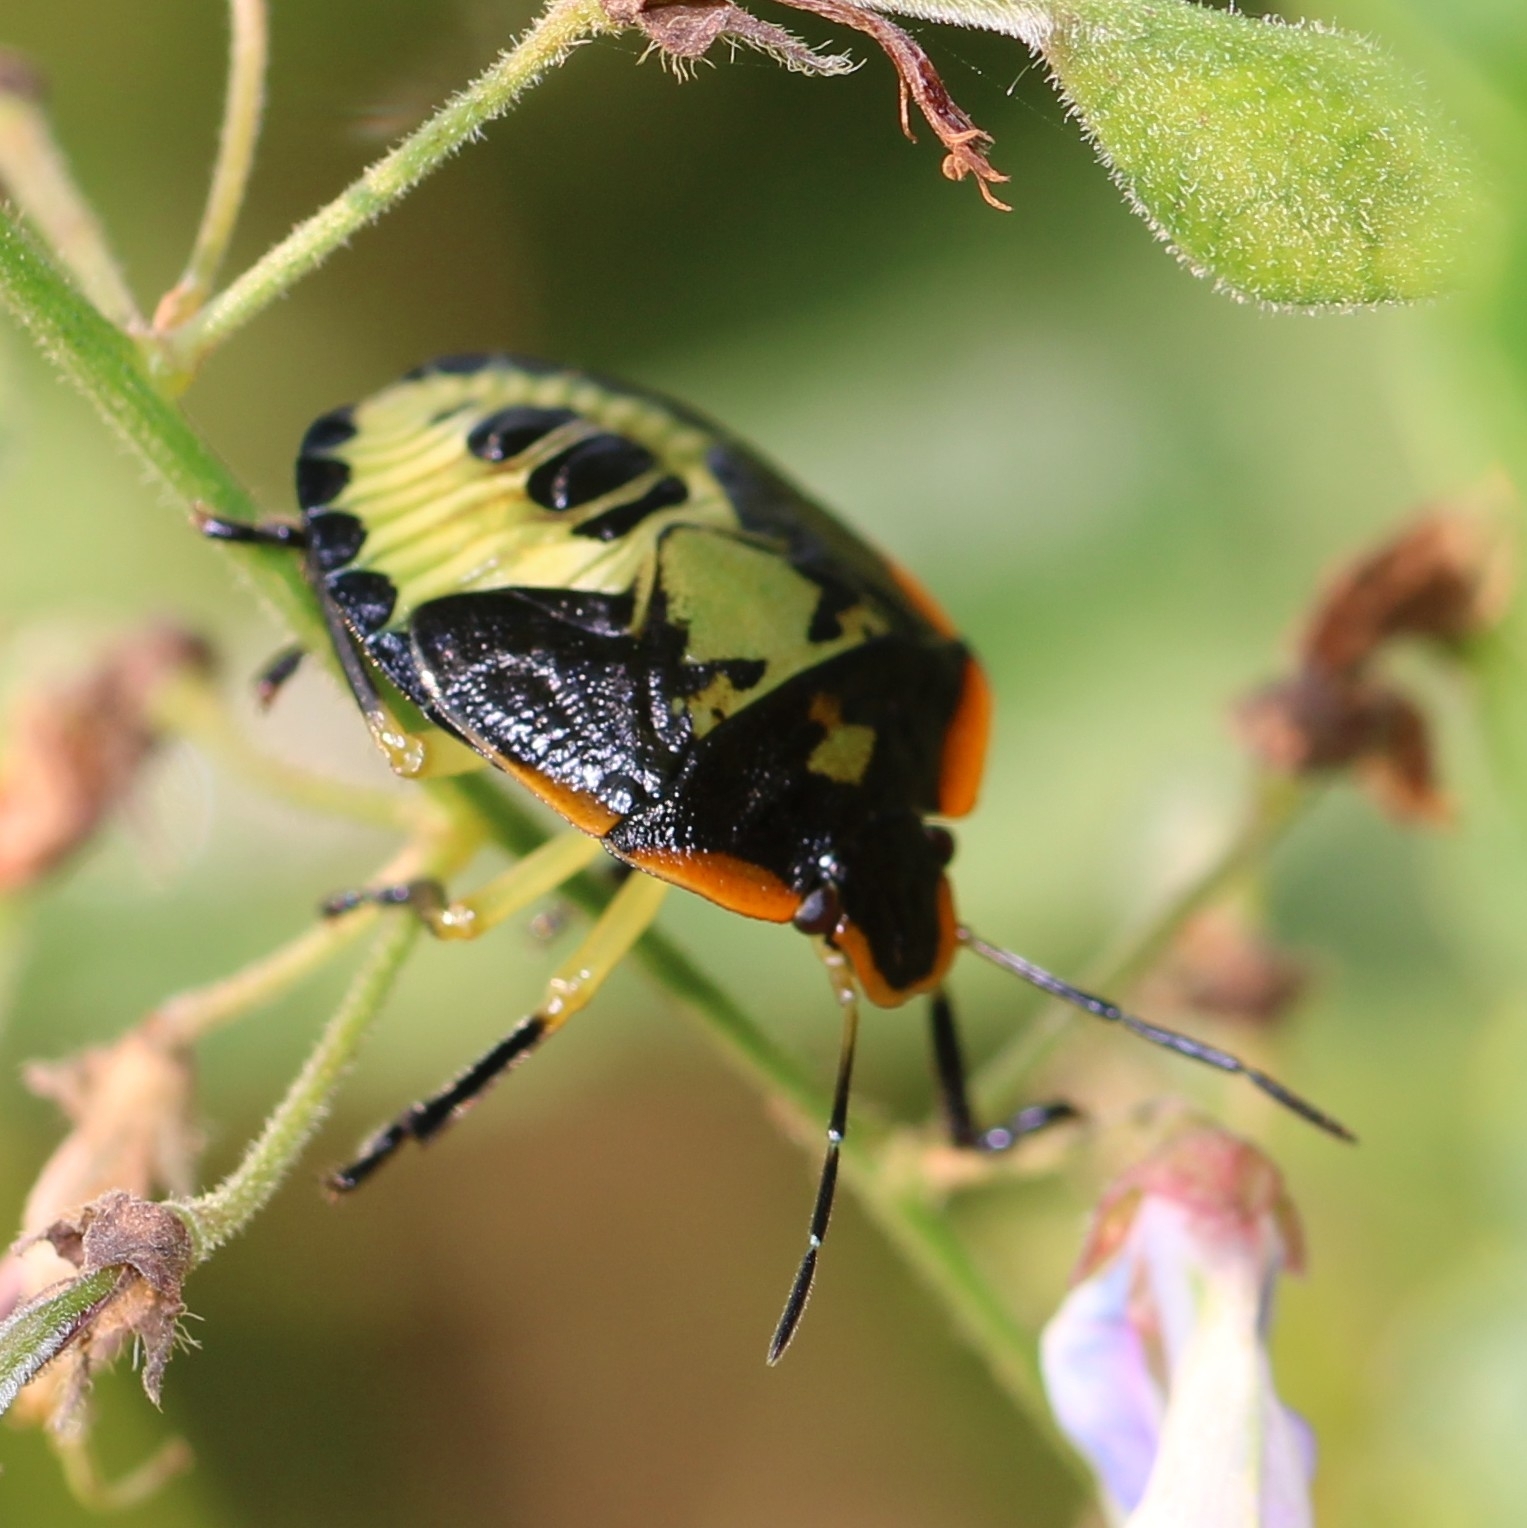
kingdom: Animalia
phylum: Arthropoda
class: Insecta
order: Hemiptera
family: Pentatomidae
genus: Chinavia
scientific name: Chinavia hilaris
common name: Green stink bug
